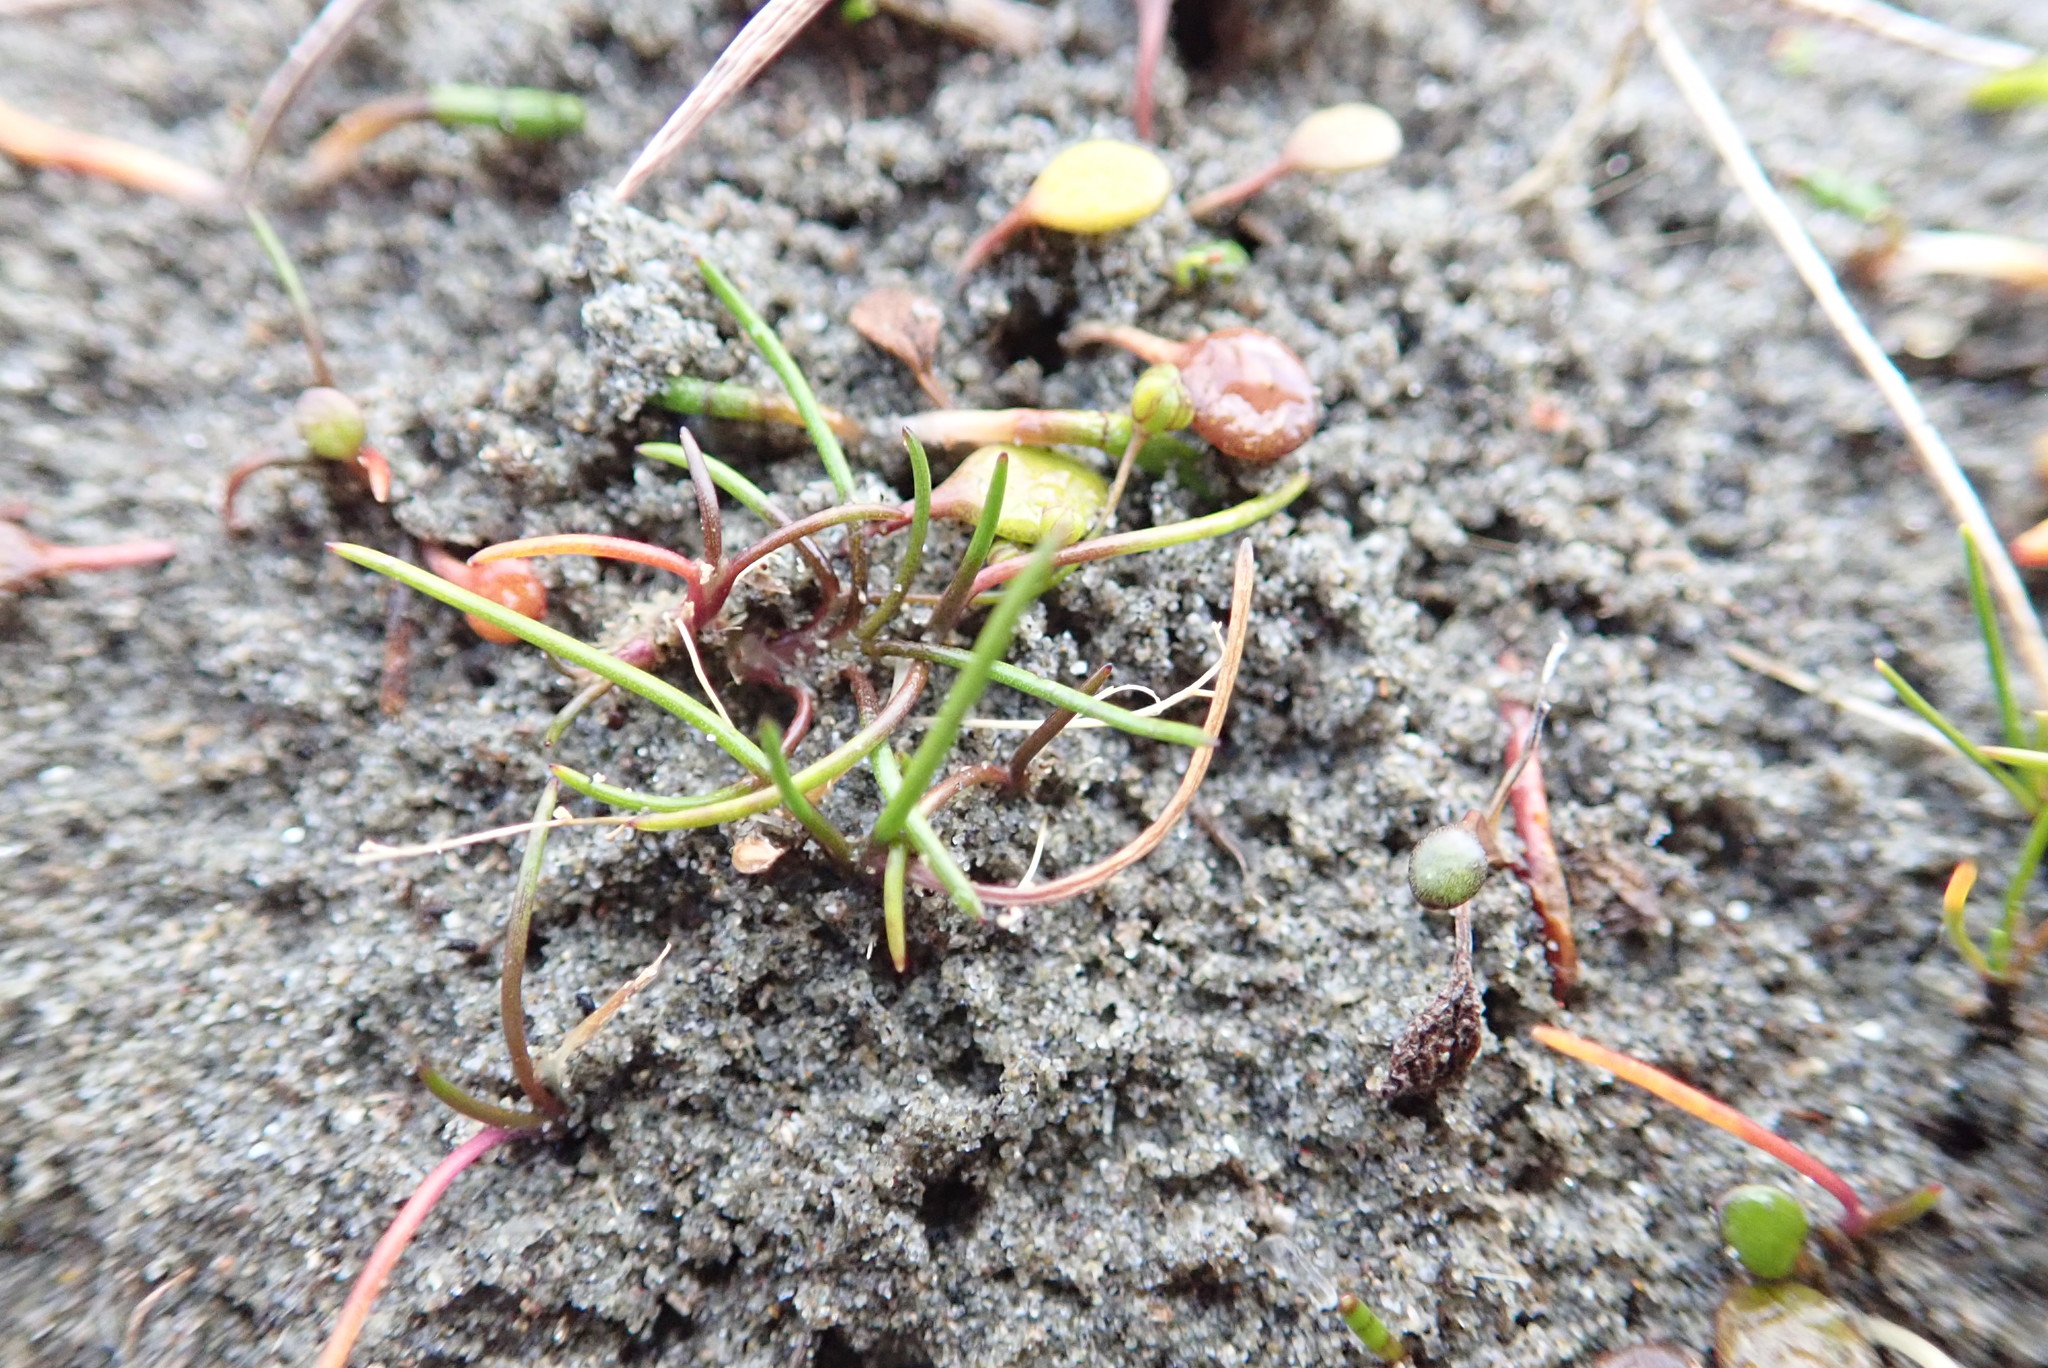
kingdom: Plantae
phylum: Tracheophyta
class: Liliopsida
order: Alismatales
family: Juncaginaceae
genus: Triglochin
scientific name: Triglochin striata
